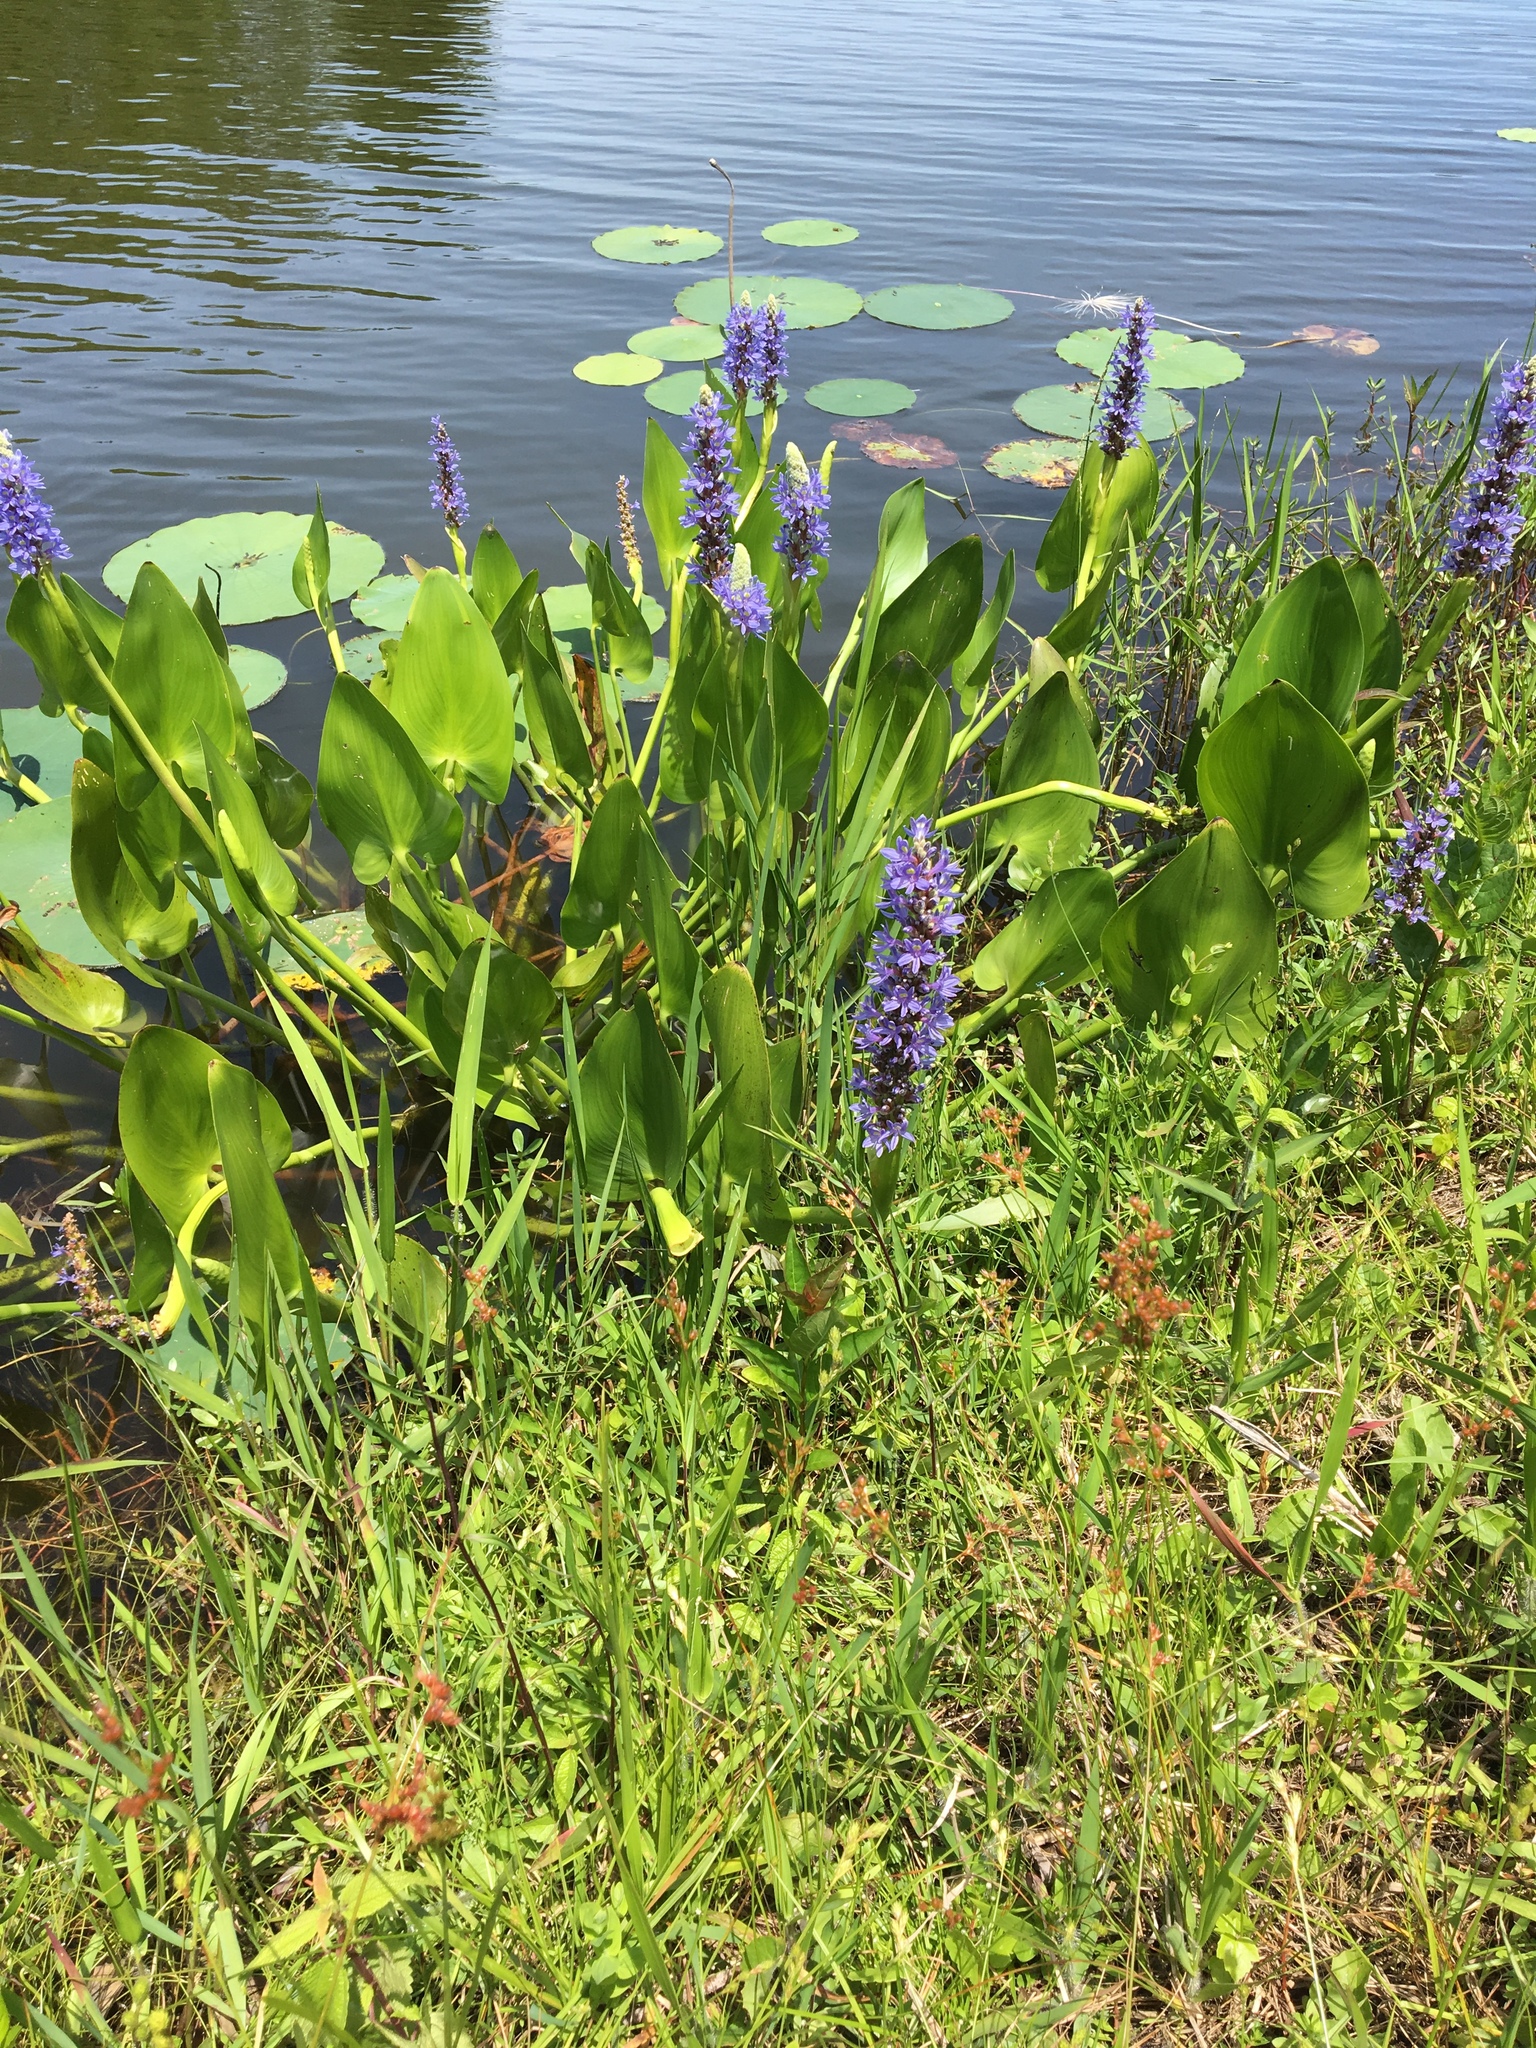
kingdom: Plantae
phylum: Tracheophyta
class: Liliopsida
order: Commelinales
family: Pontederiaceae
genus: Pontederia
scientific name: Pontederia cordata
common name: Pickerelweed
